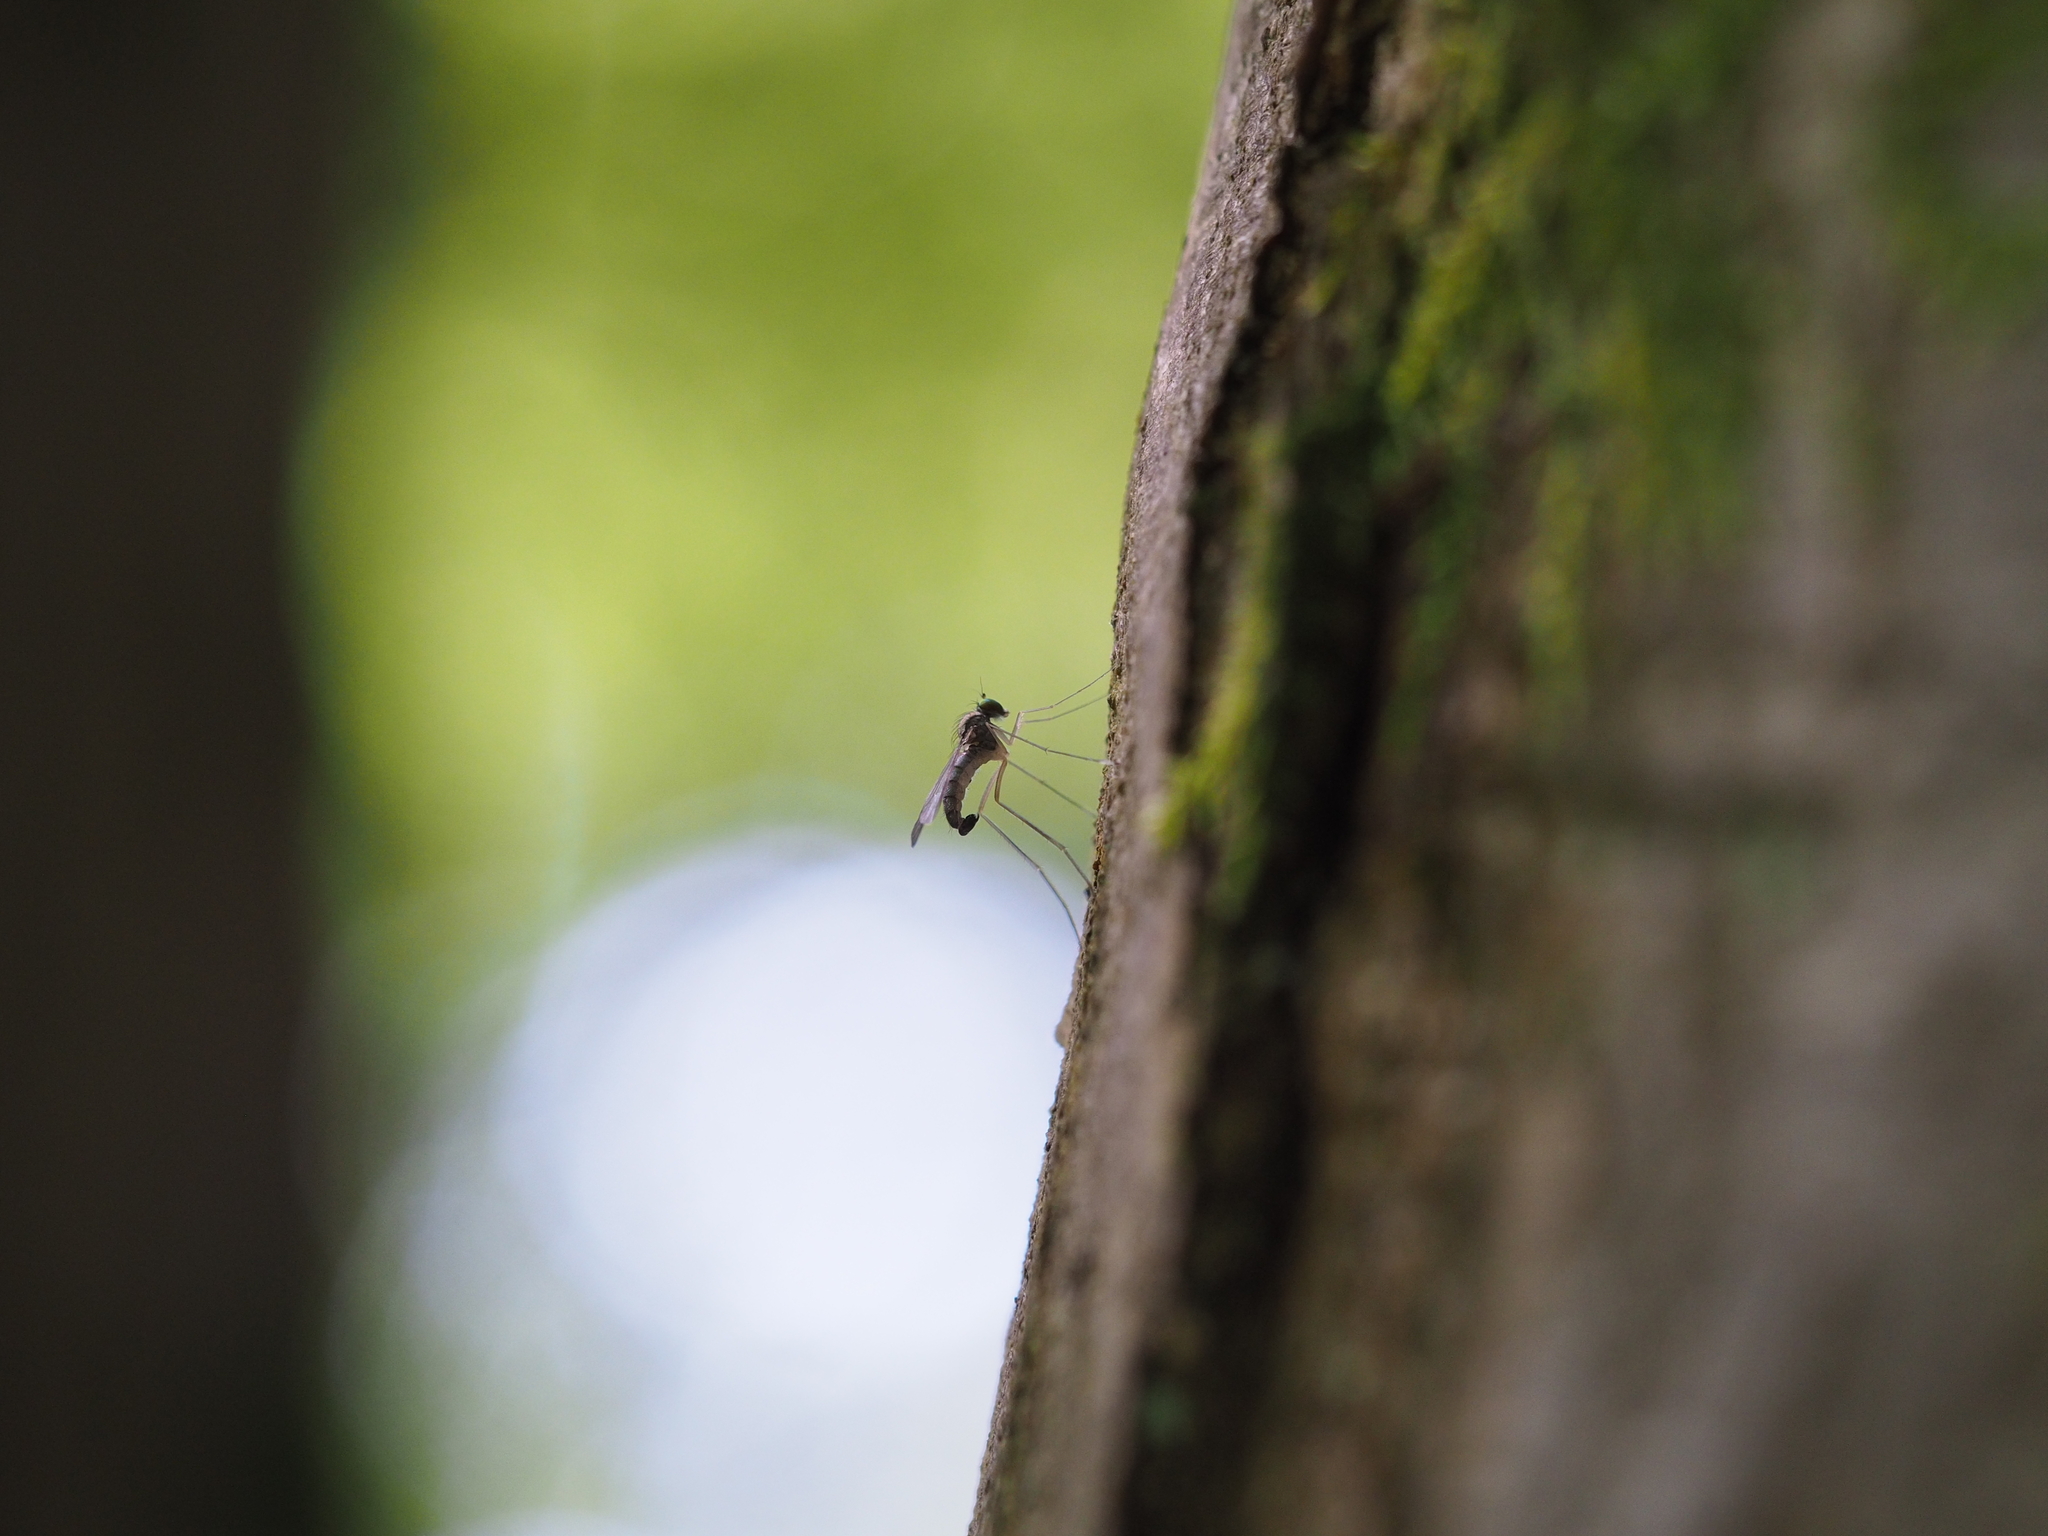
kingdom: Animalia
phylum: Arthropoda
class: Insecta
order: Diptera
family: Dolichopodidae
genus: Neurigona
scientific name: Neurigona quadrifasciata
